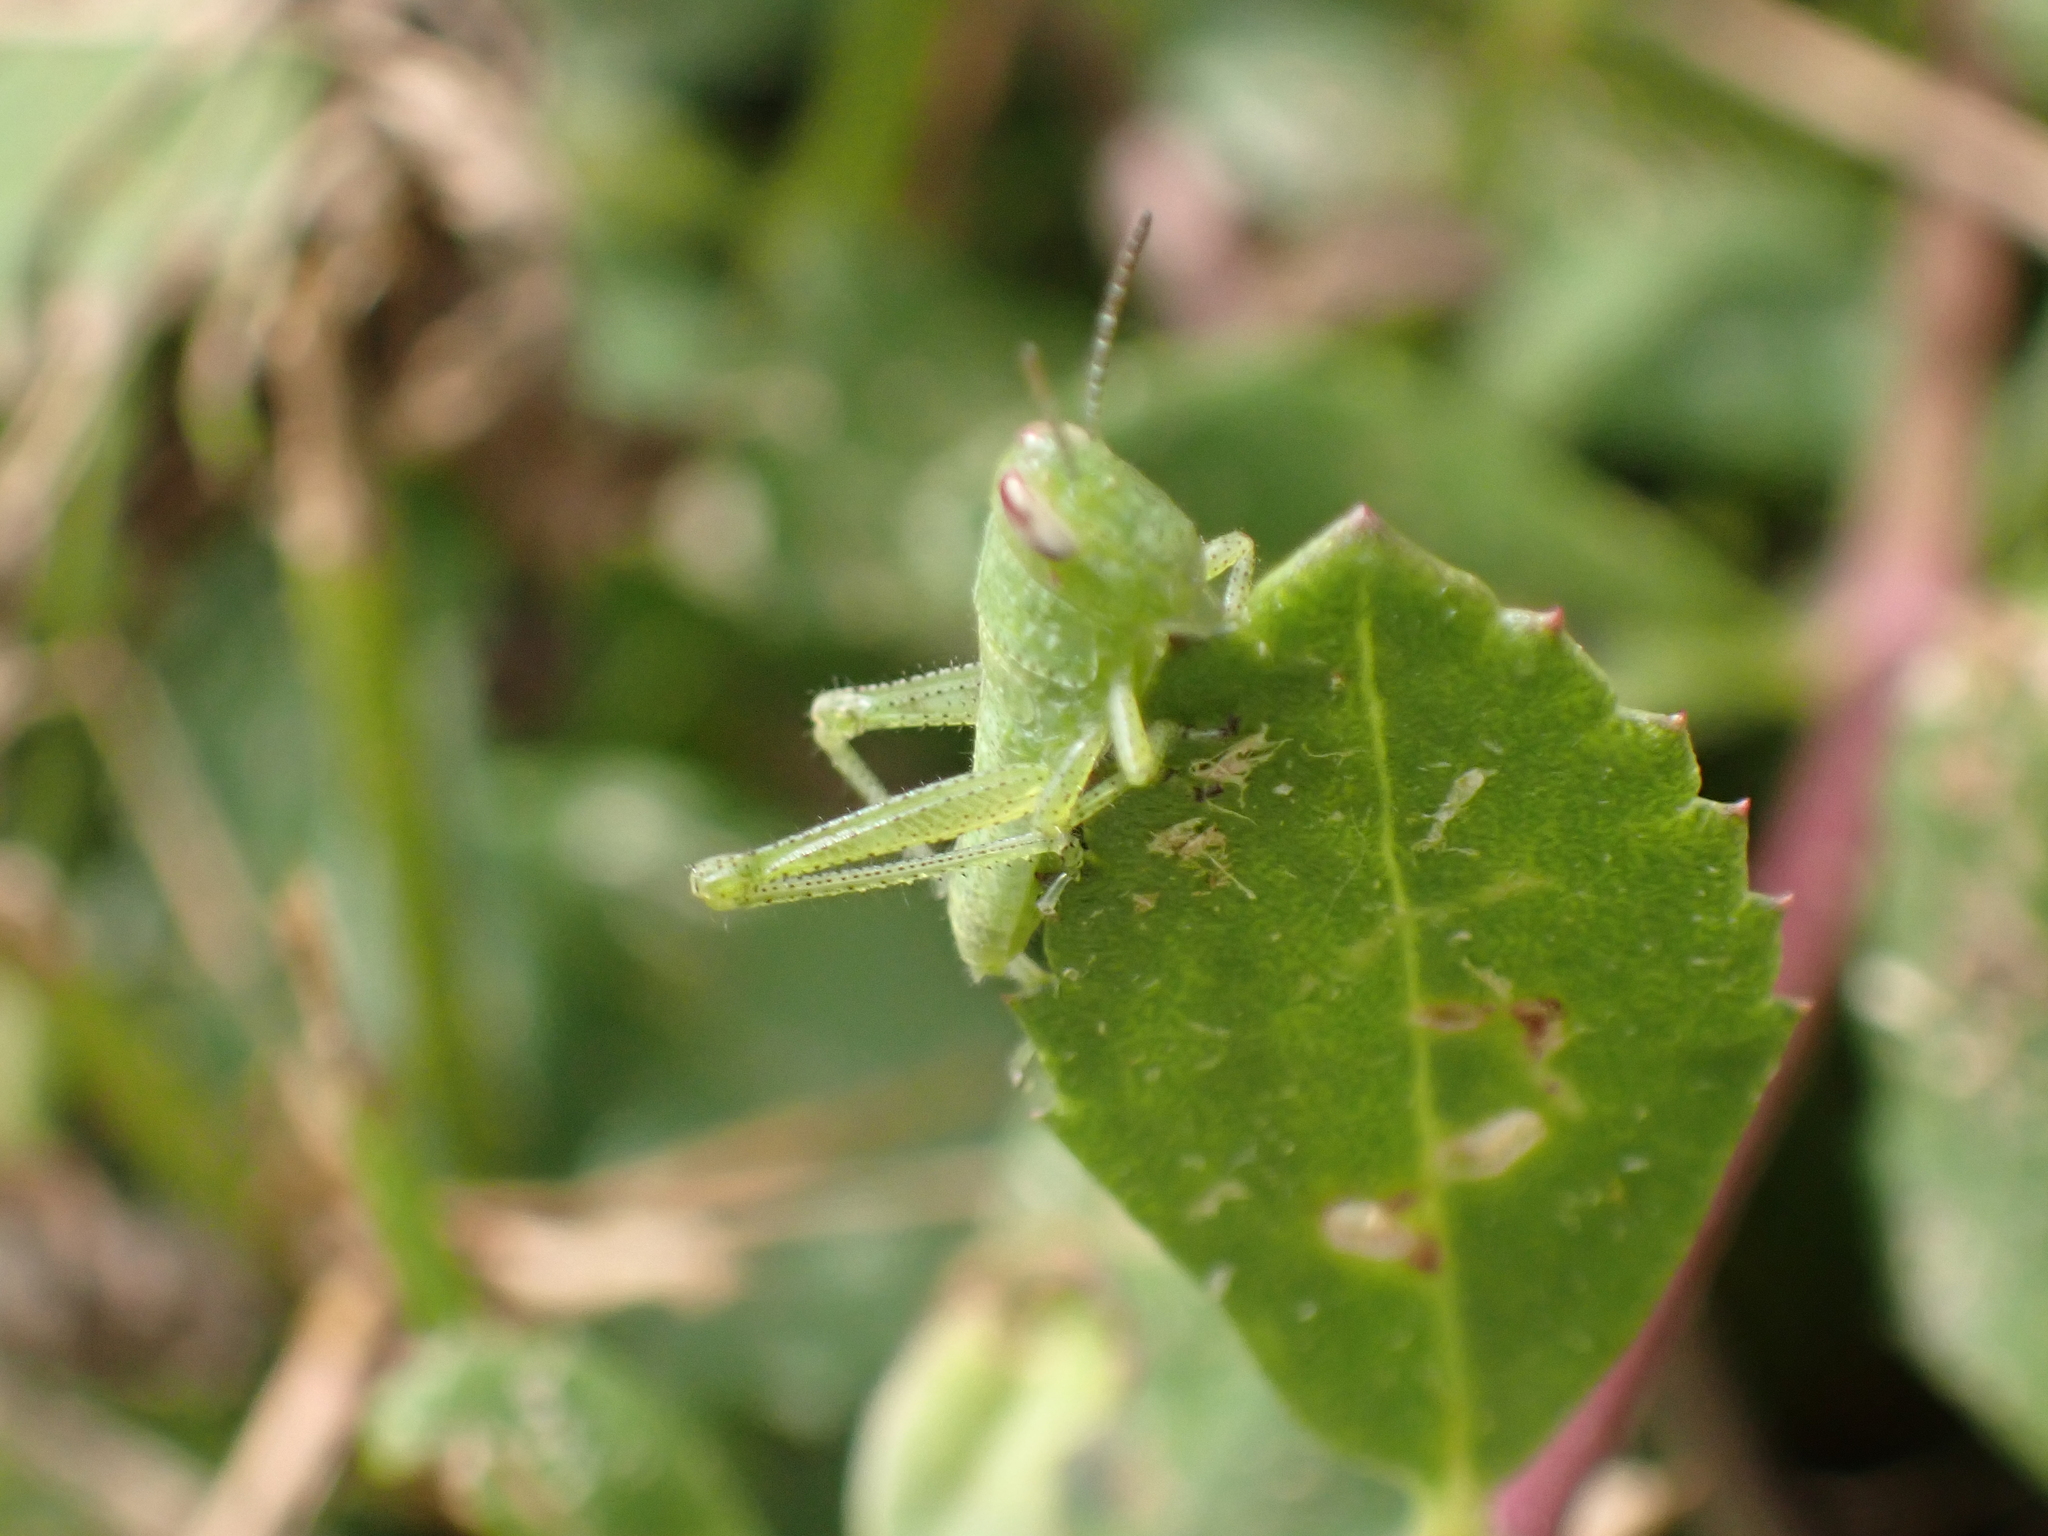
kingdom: Animalia
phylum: Arthropoda
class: Insecta
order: Orthoptera
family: Acrididae
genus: Schistocerca
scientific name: Schistocerca serialis
